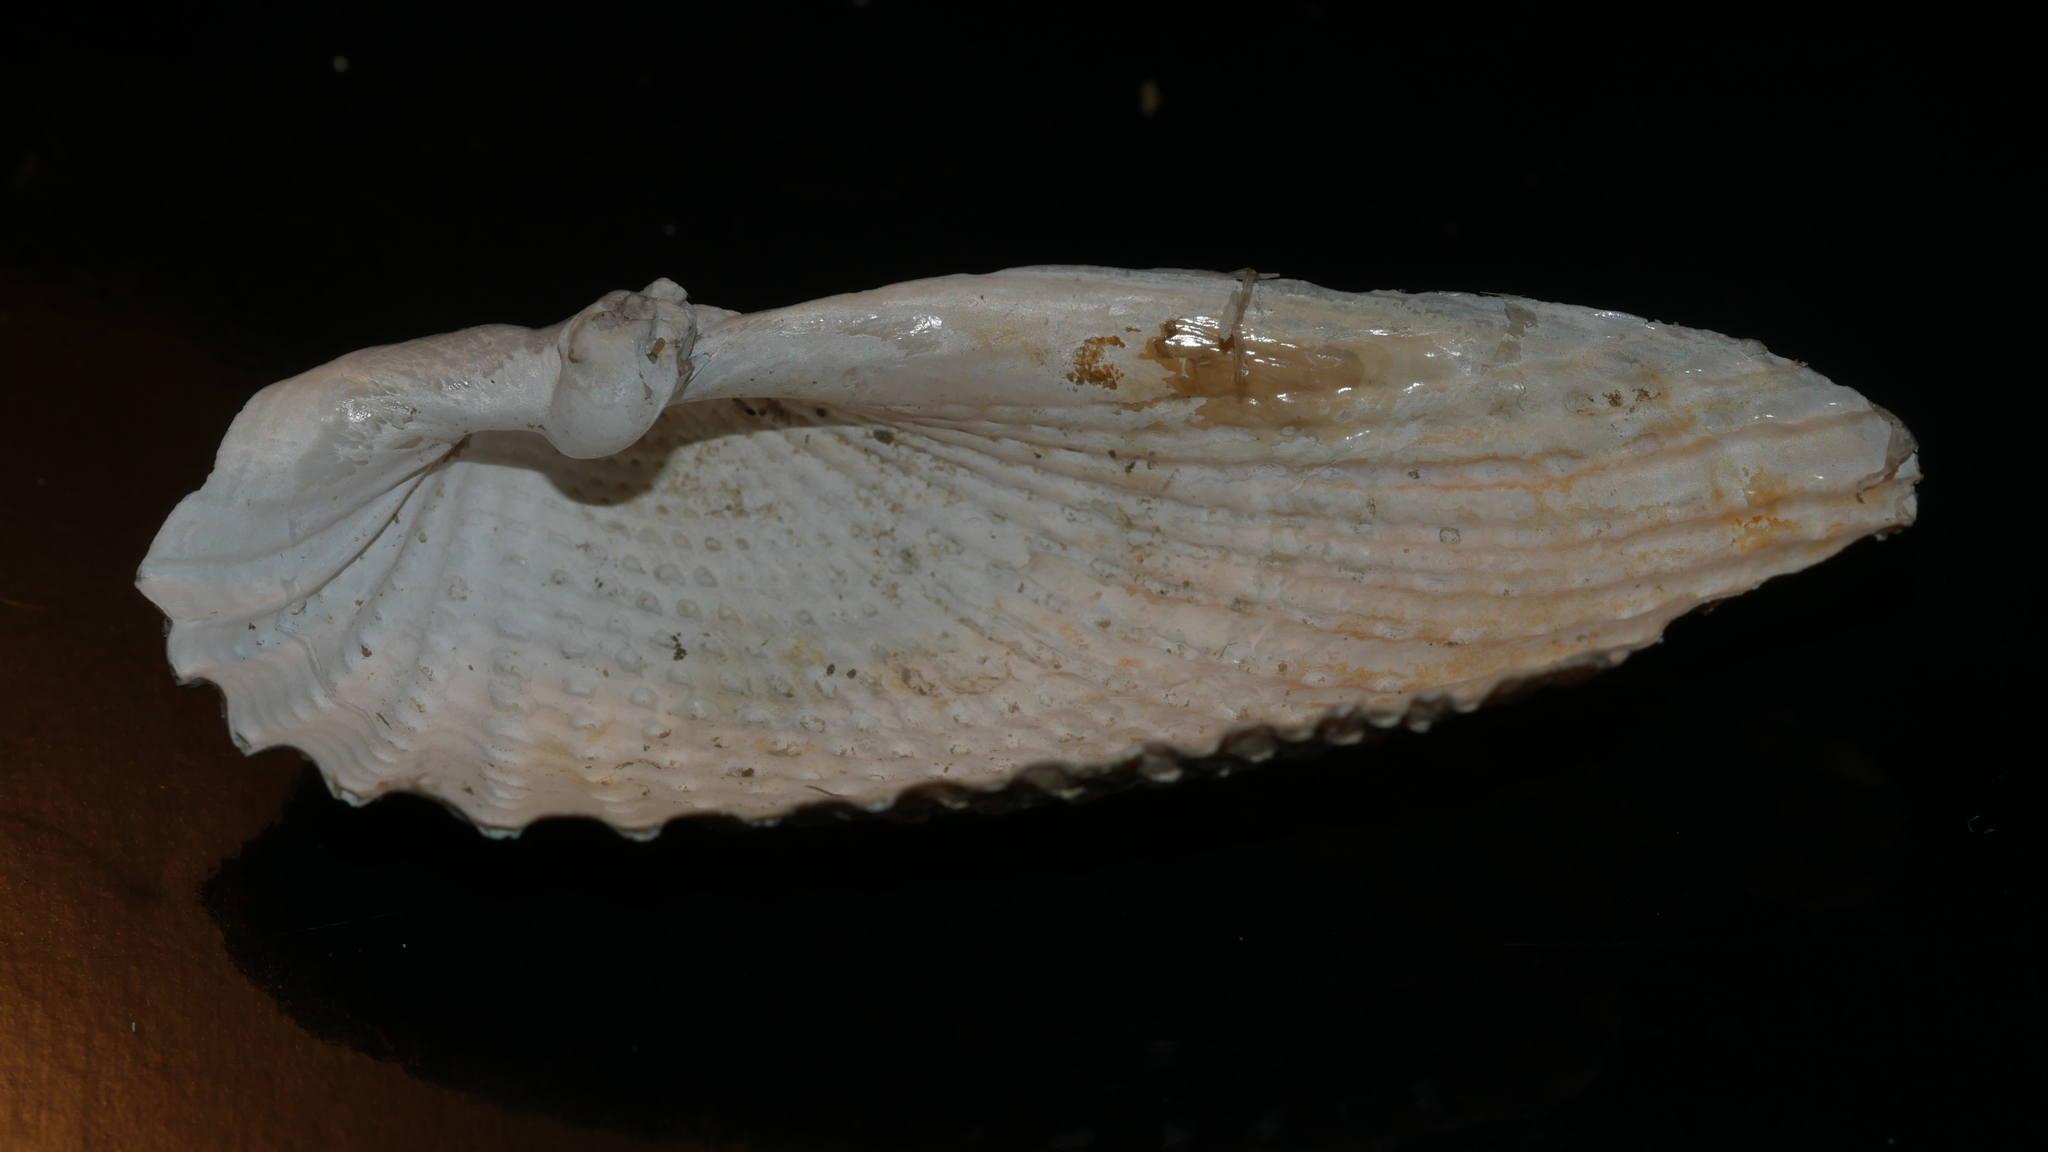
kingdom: Animalia
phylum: Mollusca
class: Bivalvia
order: Myida
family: Pholadidae
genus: Cyrtopleura
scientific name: Cyrtopleura costata
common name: Angel wing
